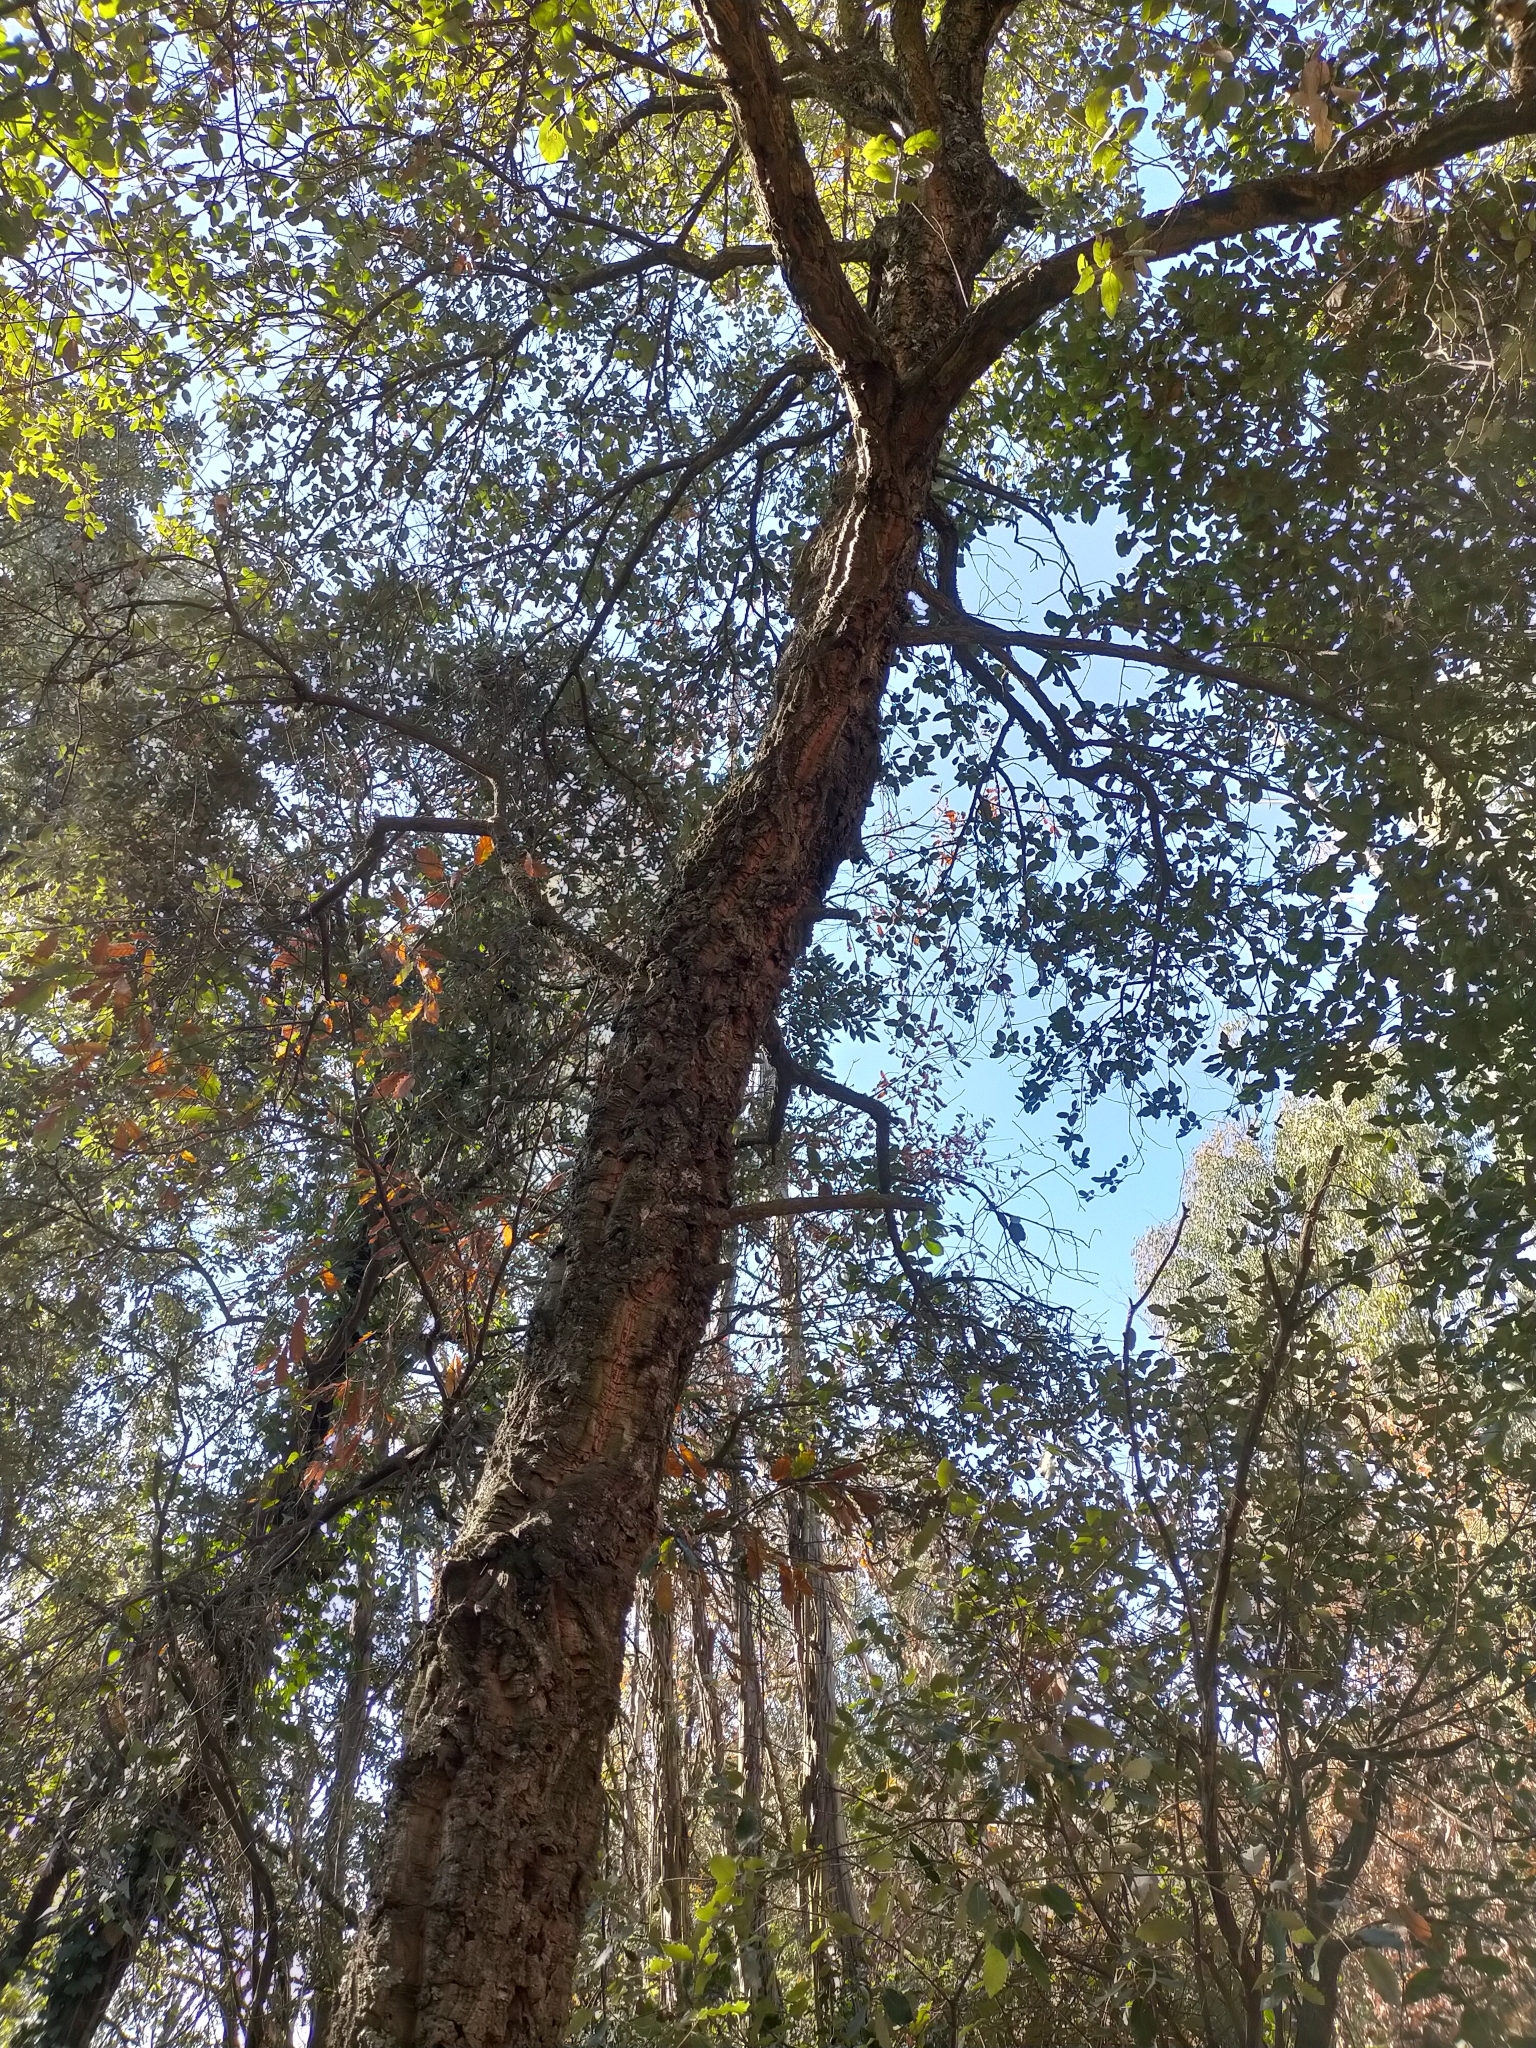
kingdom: Plantae
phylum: Tracheophyta
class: Magnoliopsida
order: Fagales
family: Fagaceae
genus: Quercus
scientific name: Quercus suber
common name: Cork oak
